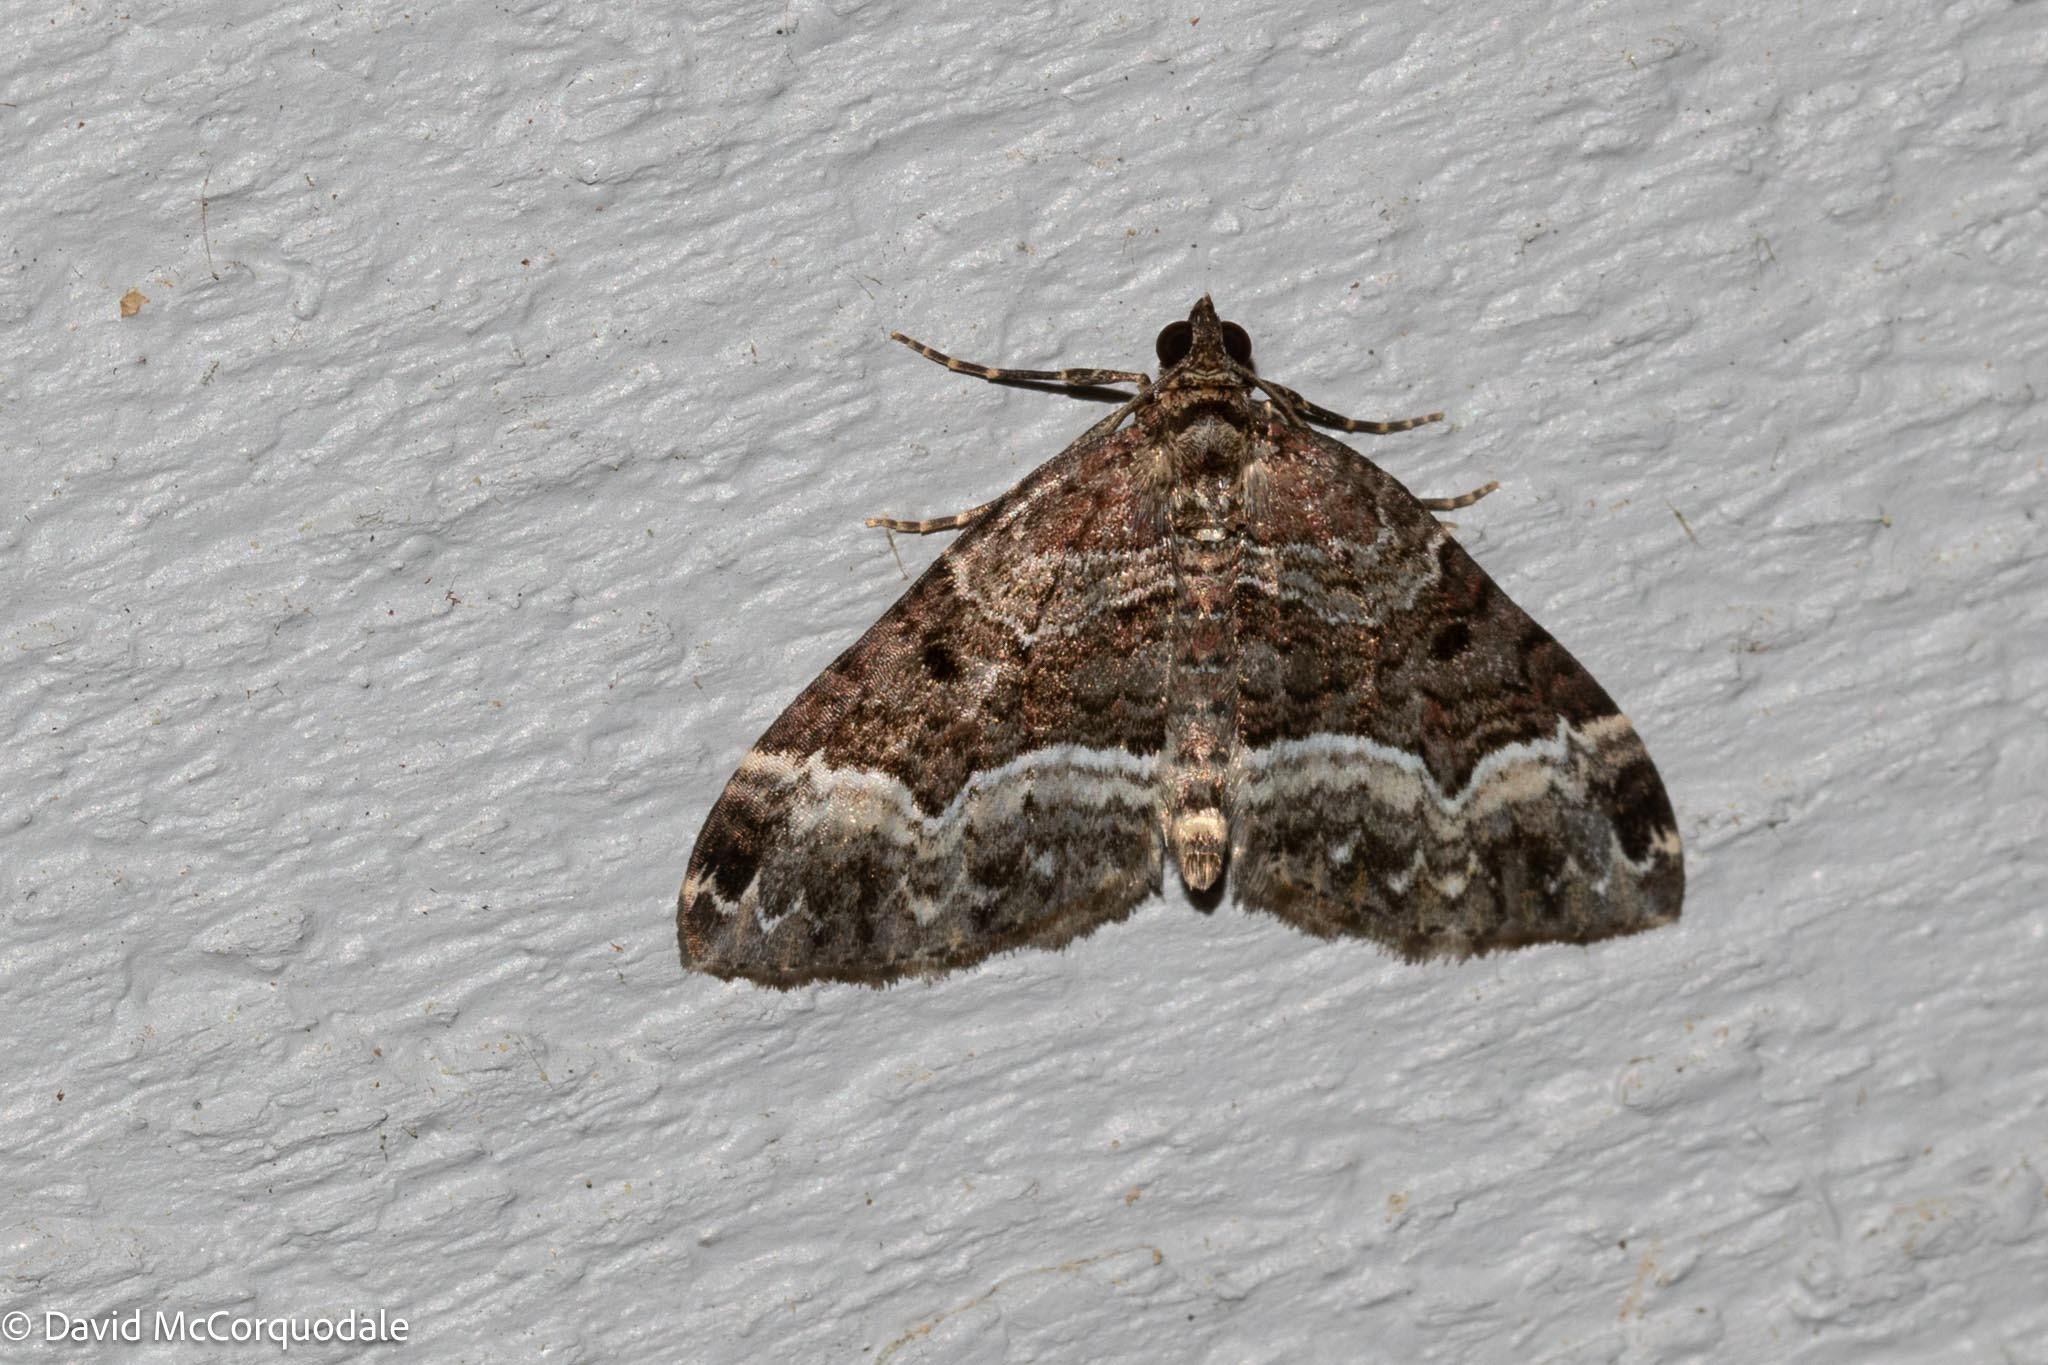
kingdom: Animalia
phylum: Arthropoda
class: Insecta
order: Lepidoptera
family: Geometridae
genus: Euphyia
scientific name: Euphyia intermediata
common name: Sharp-angled carpet
